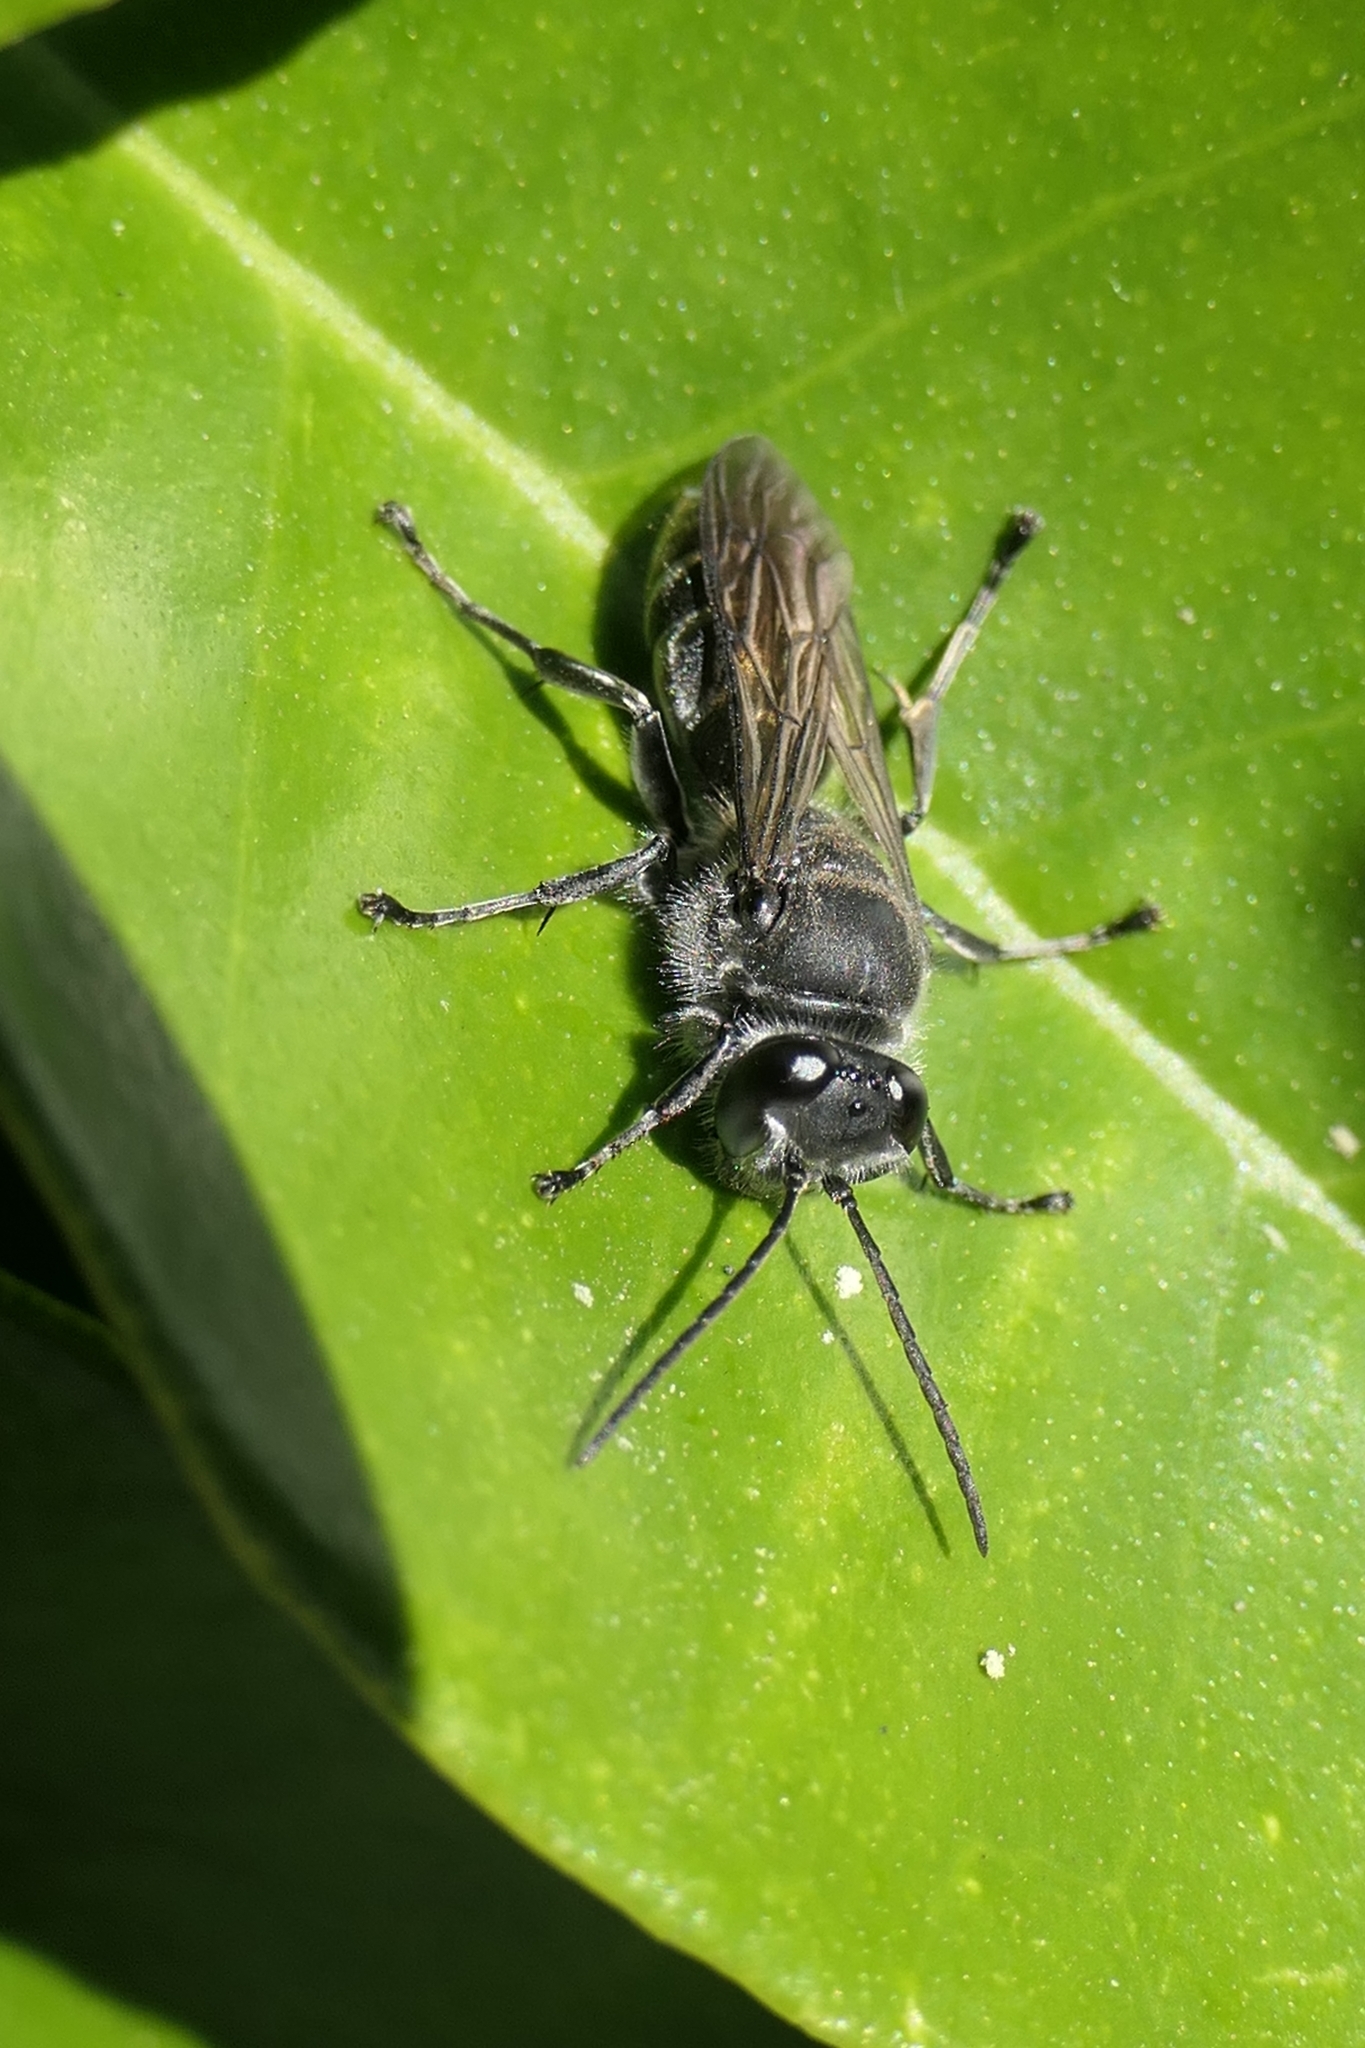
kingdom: Animalia
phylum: Arthropoda
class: Insecta
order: Hymenoptera
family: Crabronidae
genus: Pison
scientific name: Pison spinolae
